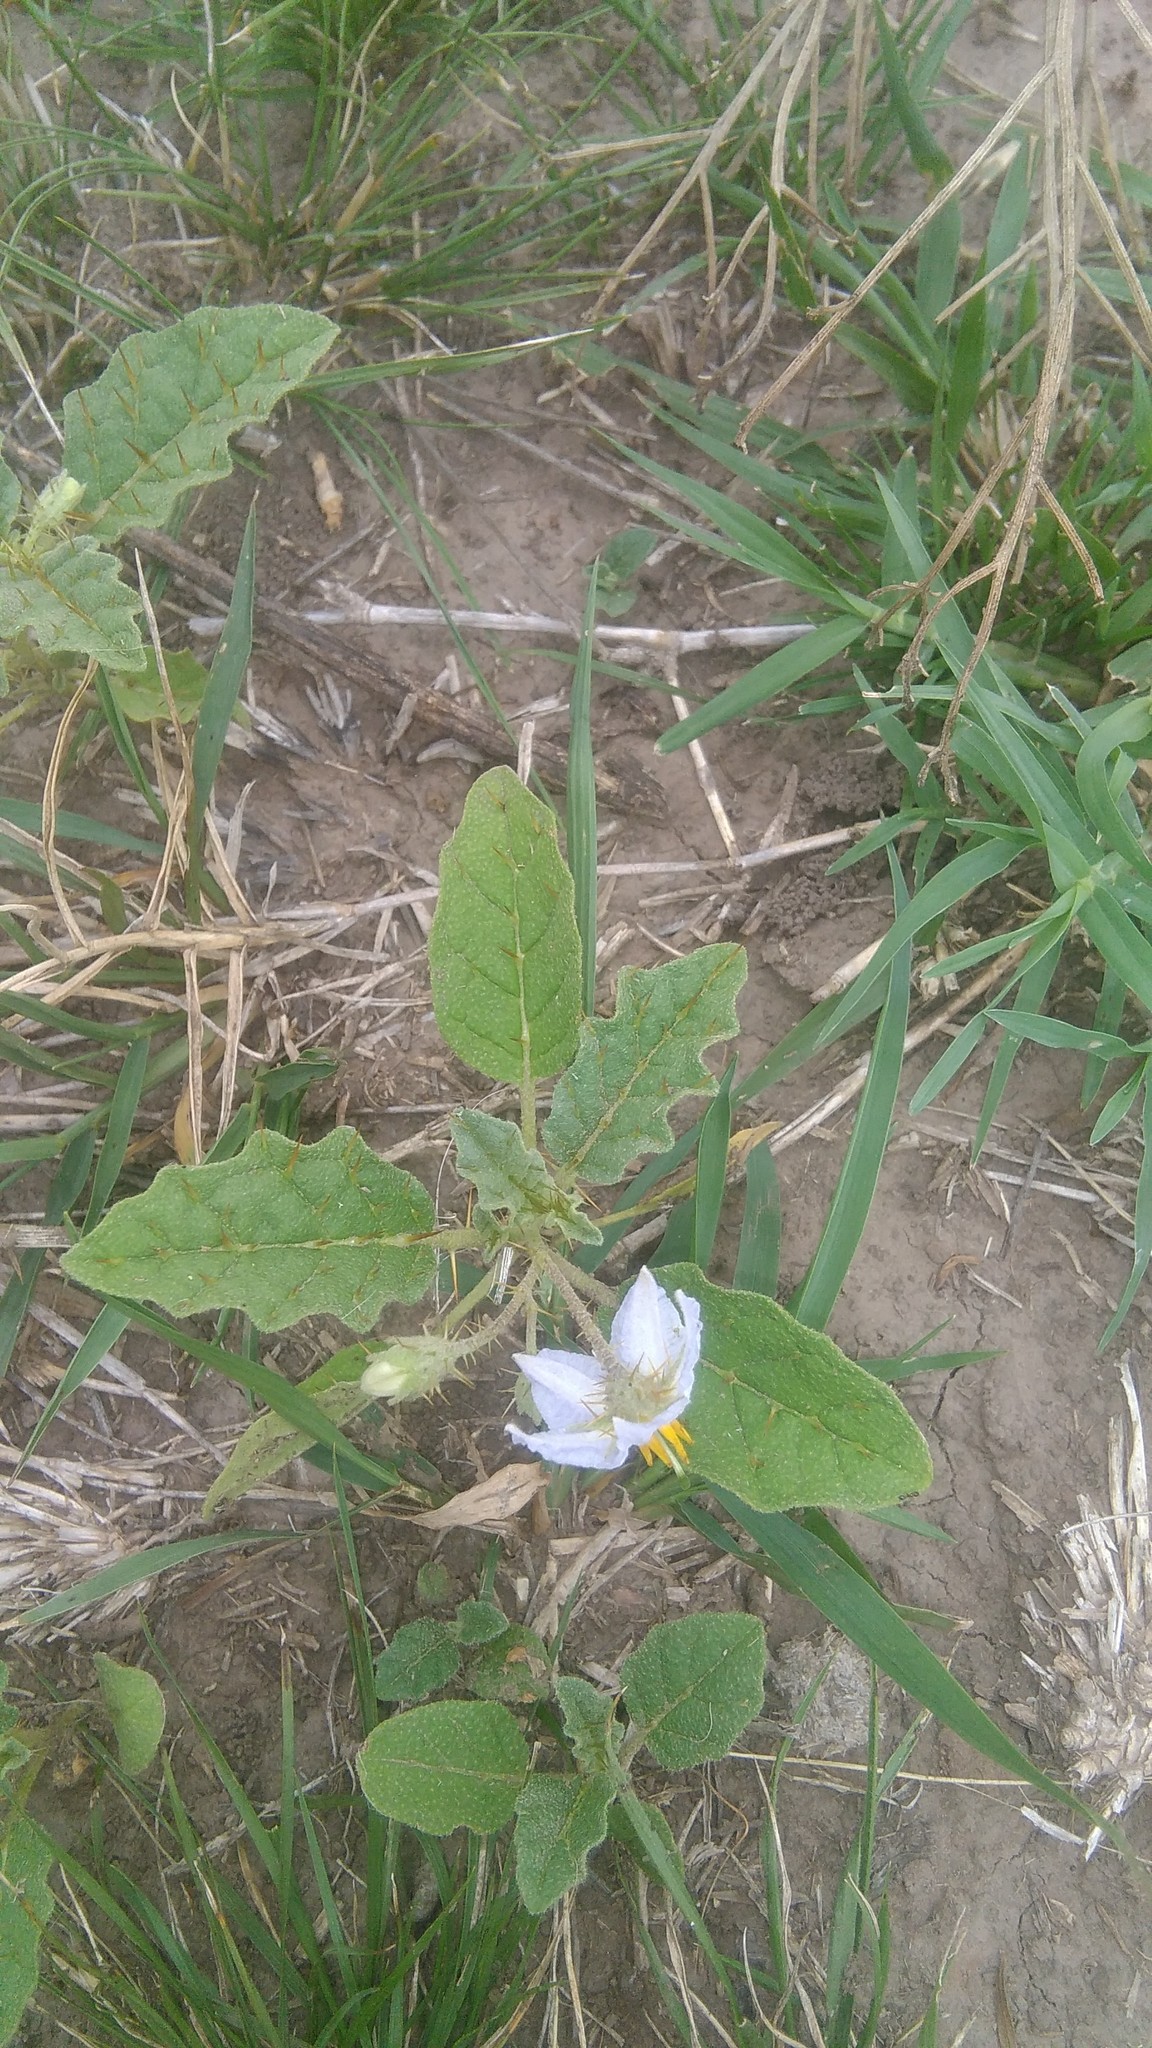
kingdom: Plantae
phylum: Tracheophyta
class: Magnoliopsida
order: Solanales
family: Solanaceae
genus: Solanum
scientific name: Solanum juvenale
